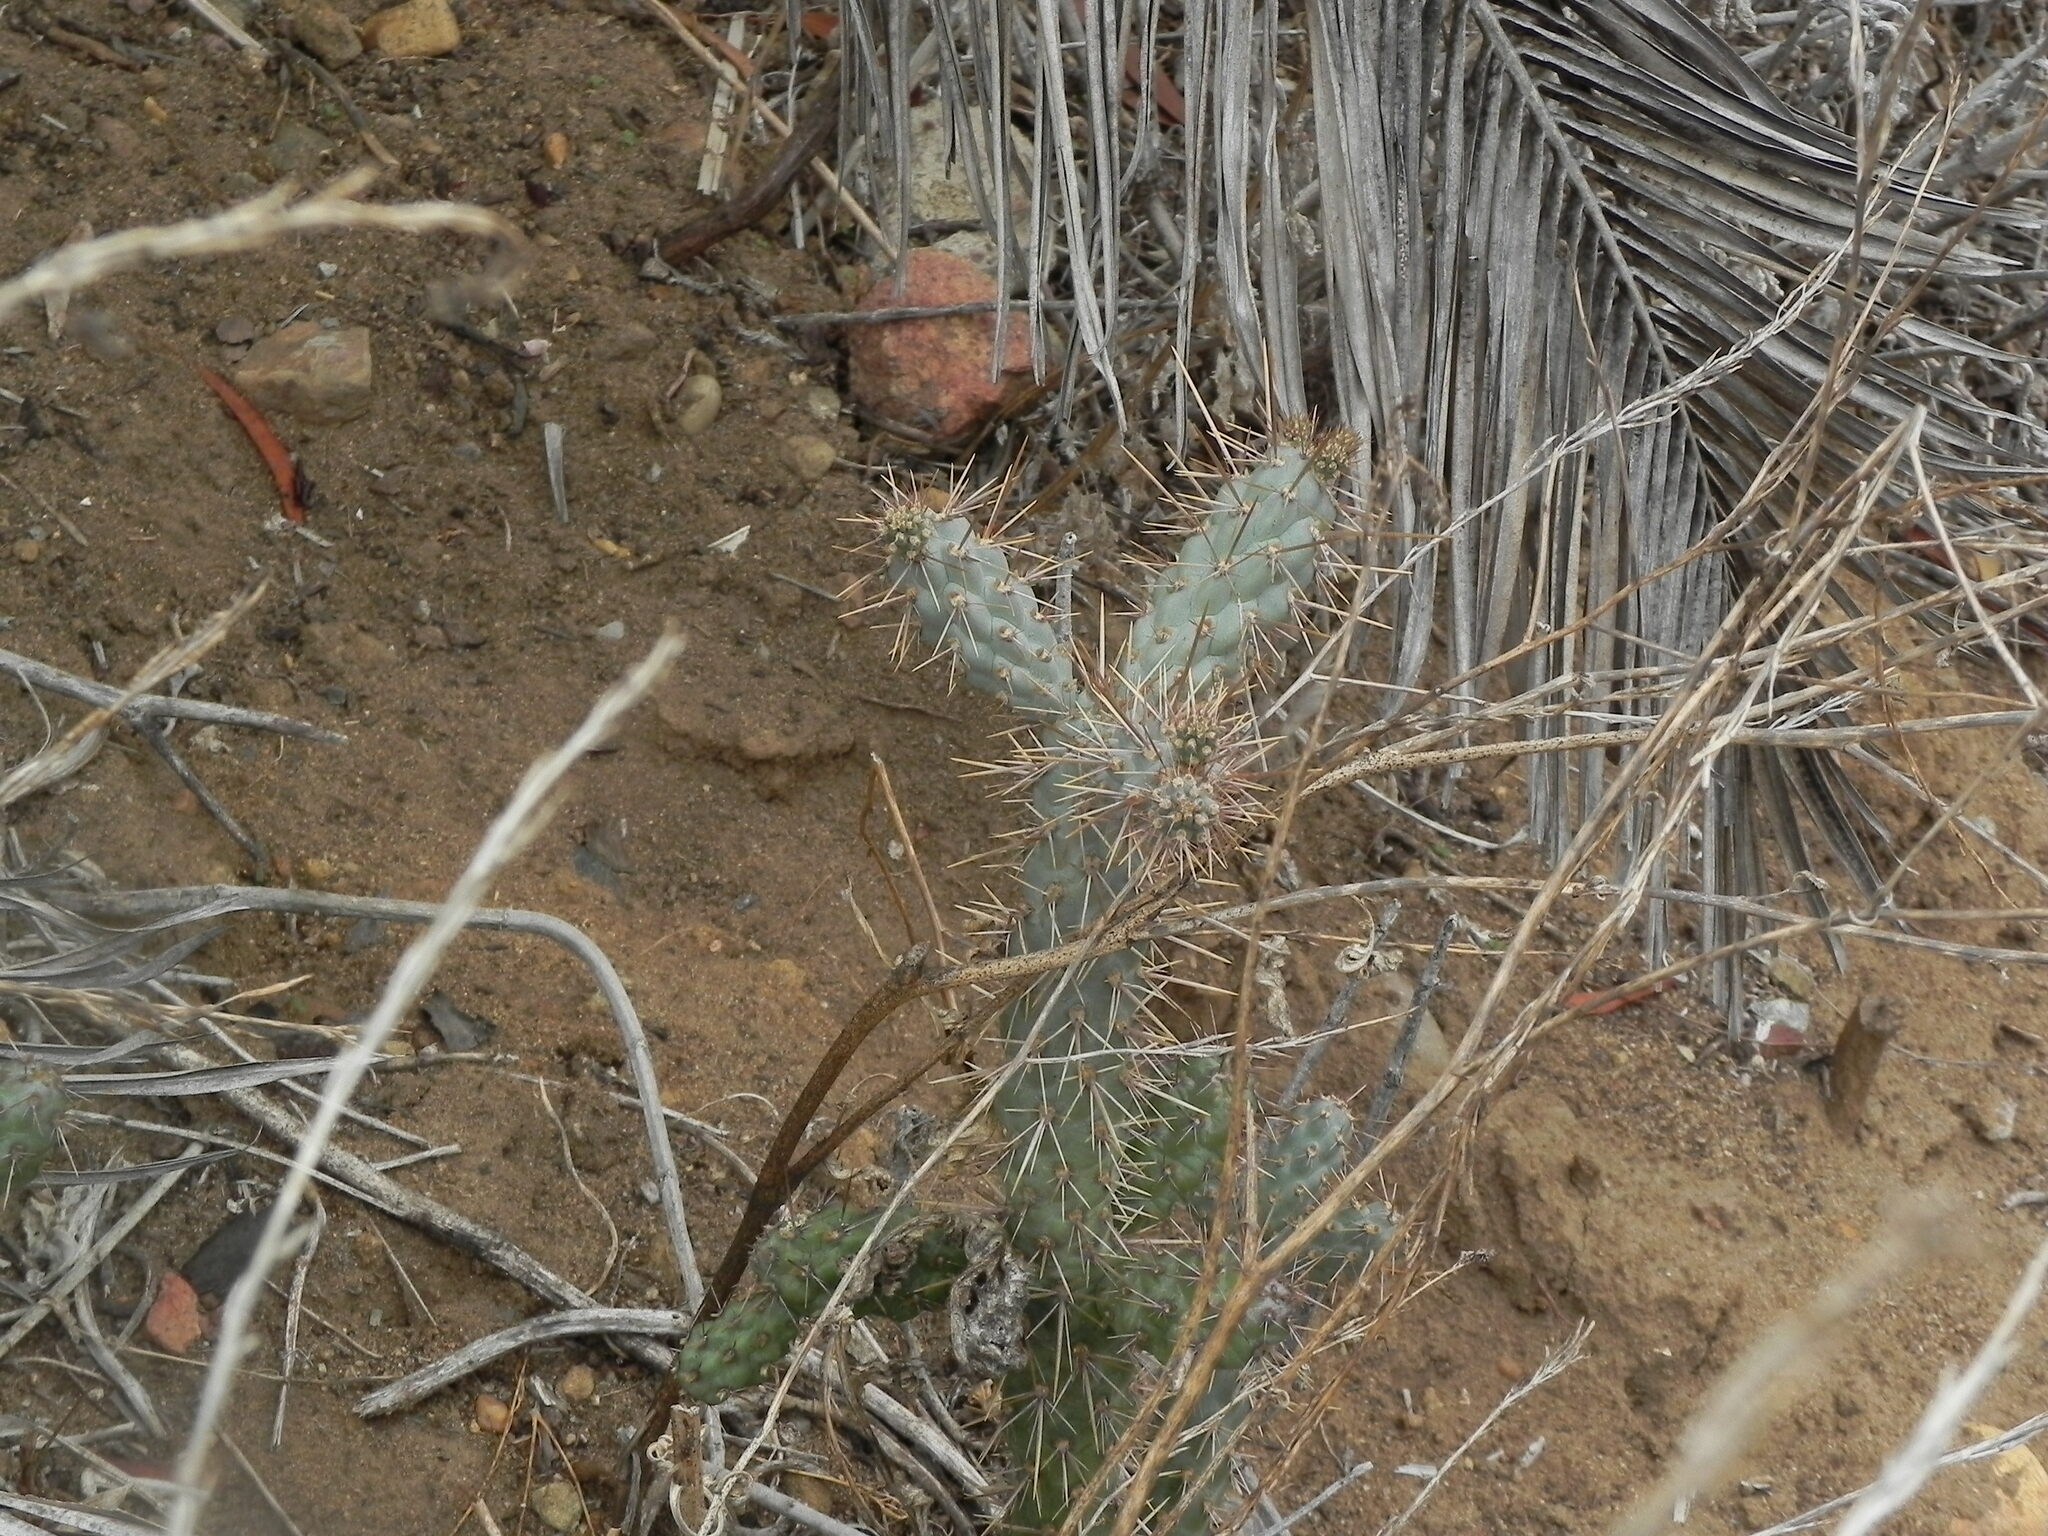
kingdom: Plantae
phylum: Tracheophyta
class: Magnoliopsida
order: Caryophyllales
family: Cactaceae
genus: Cylindropuntia
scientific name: Cylindropuntia prolifera
